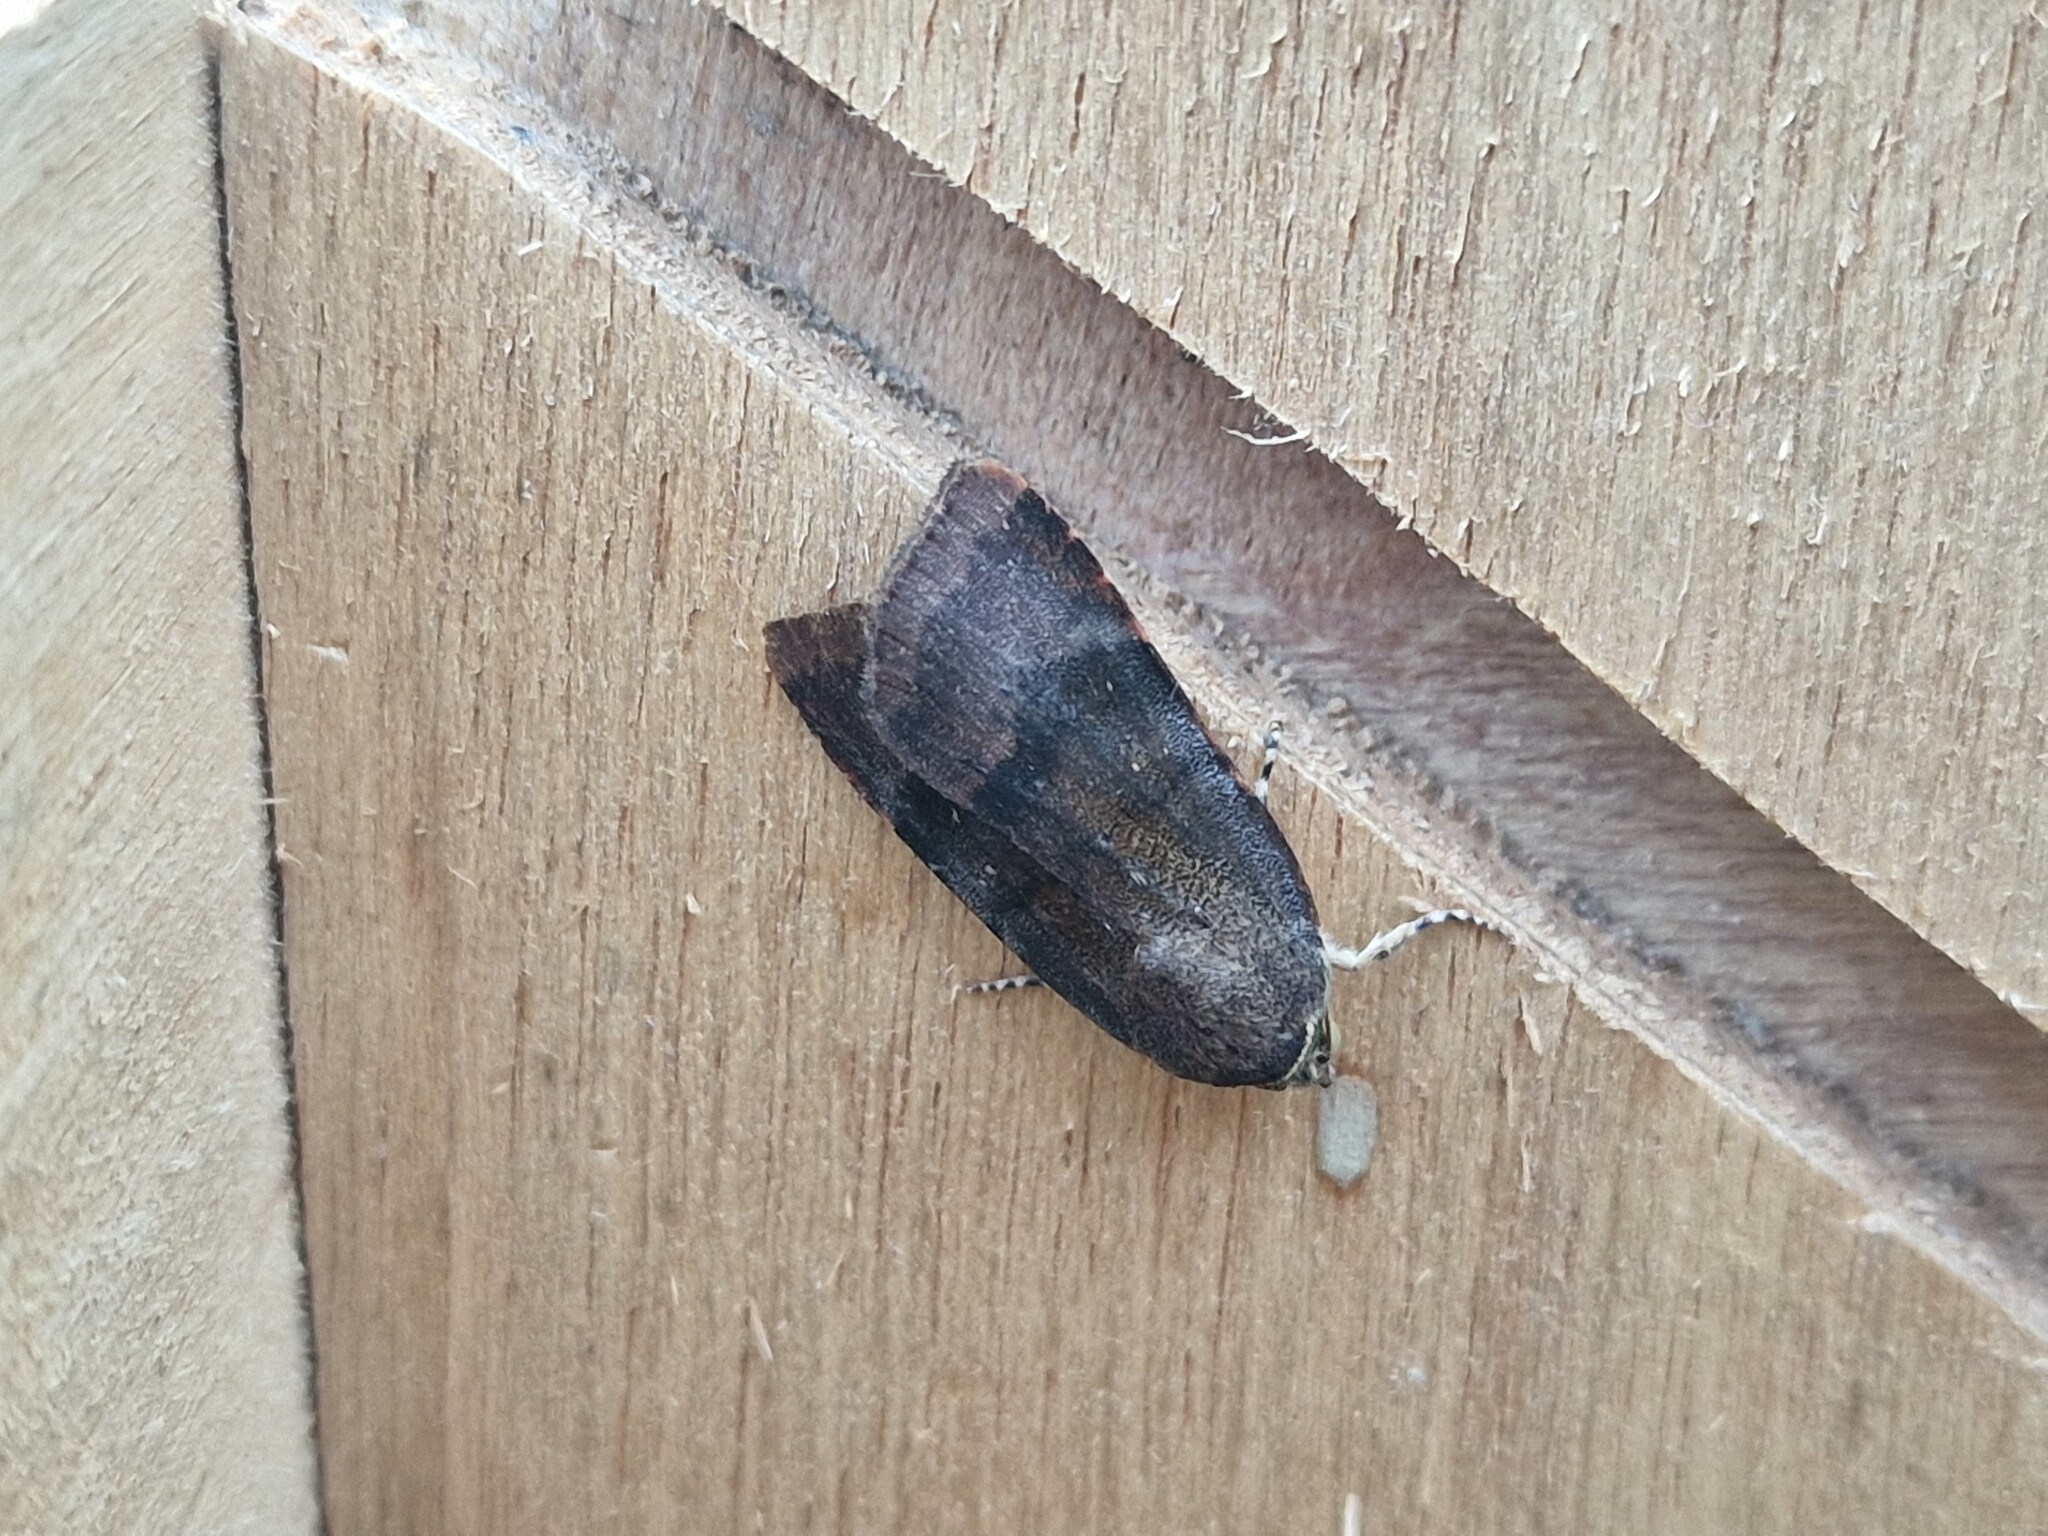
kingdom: Animalia
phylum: Arthropoda
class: Insecta
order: Lepidoptera
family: Noctuidae
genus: Noctua
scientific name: Noctua
